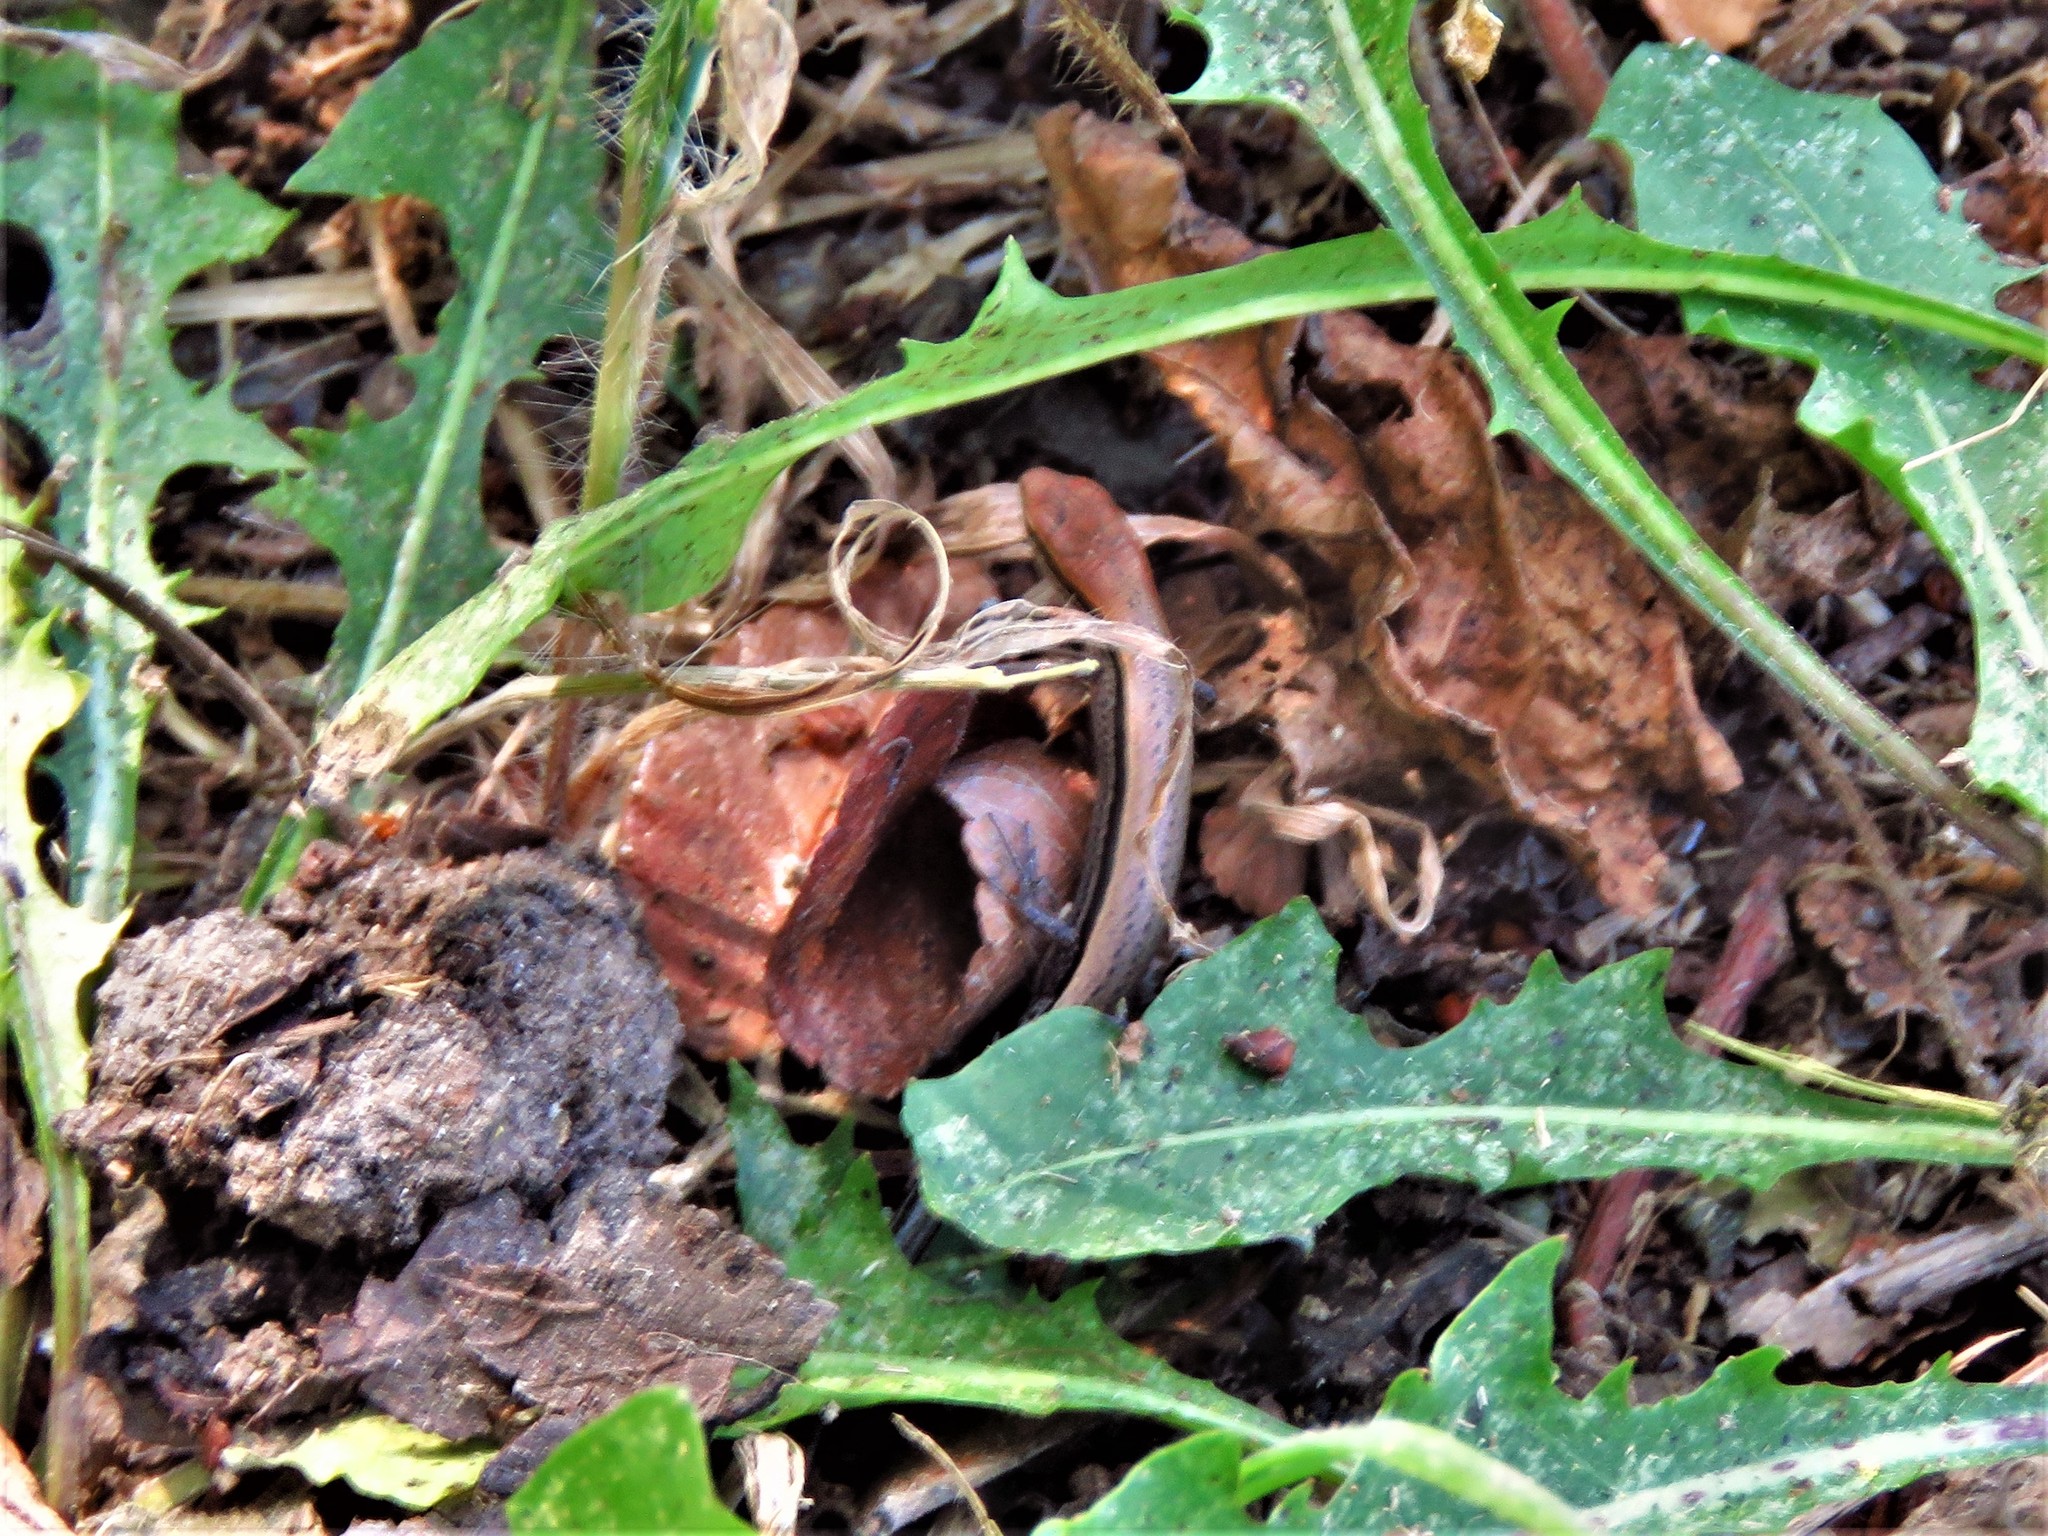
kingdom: Animalia
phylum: Chordata
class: Squamata
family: Scincidae
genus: Scincella
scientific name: Scincella lateralis
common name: Ground skink
